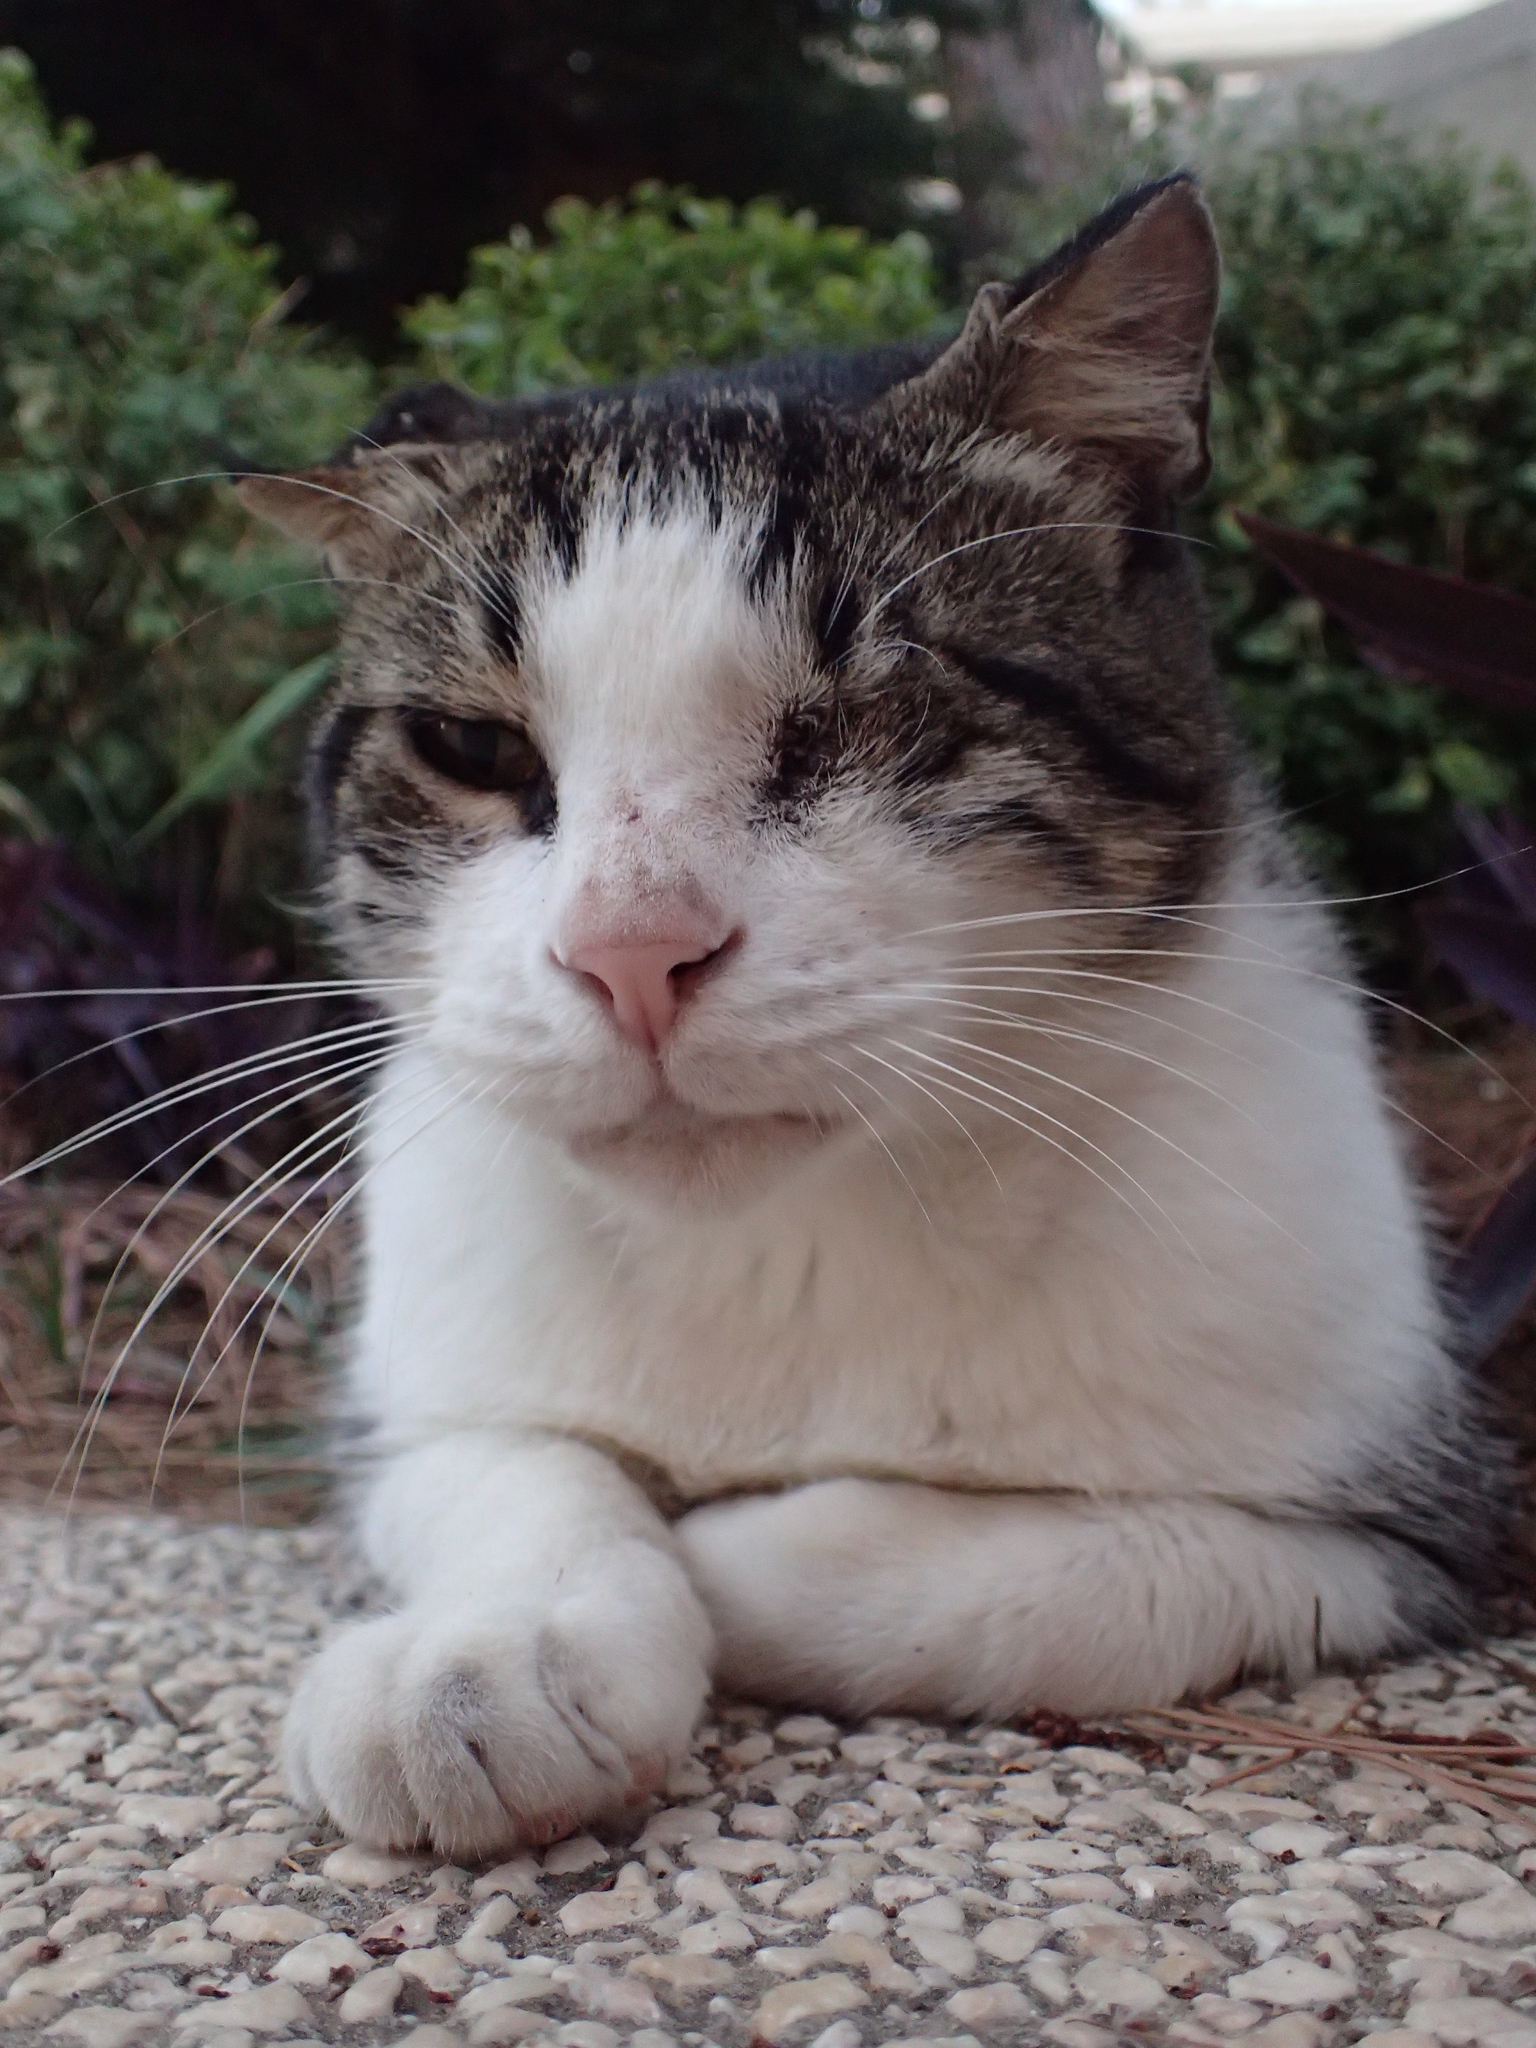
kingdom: Animalia
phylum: Chordata
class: Mammalia
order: Carnivora
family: Felidae
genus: Felis
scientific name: Felis catus
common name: Domestic cat
